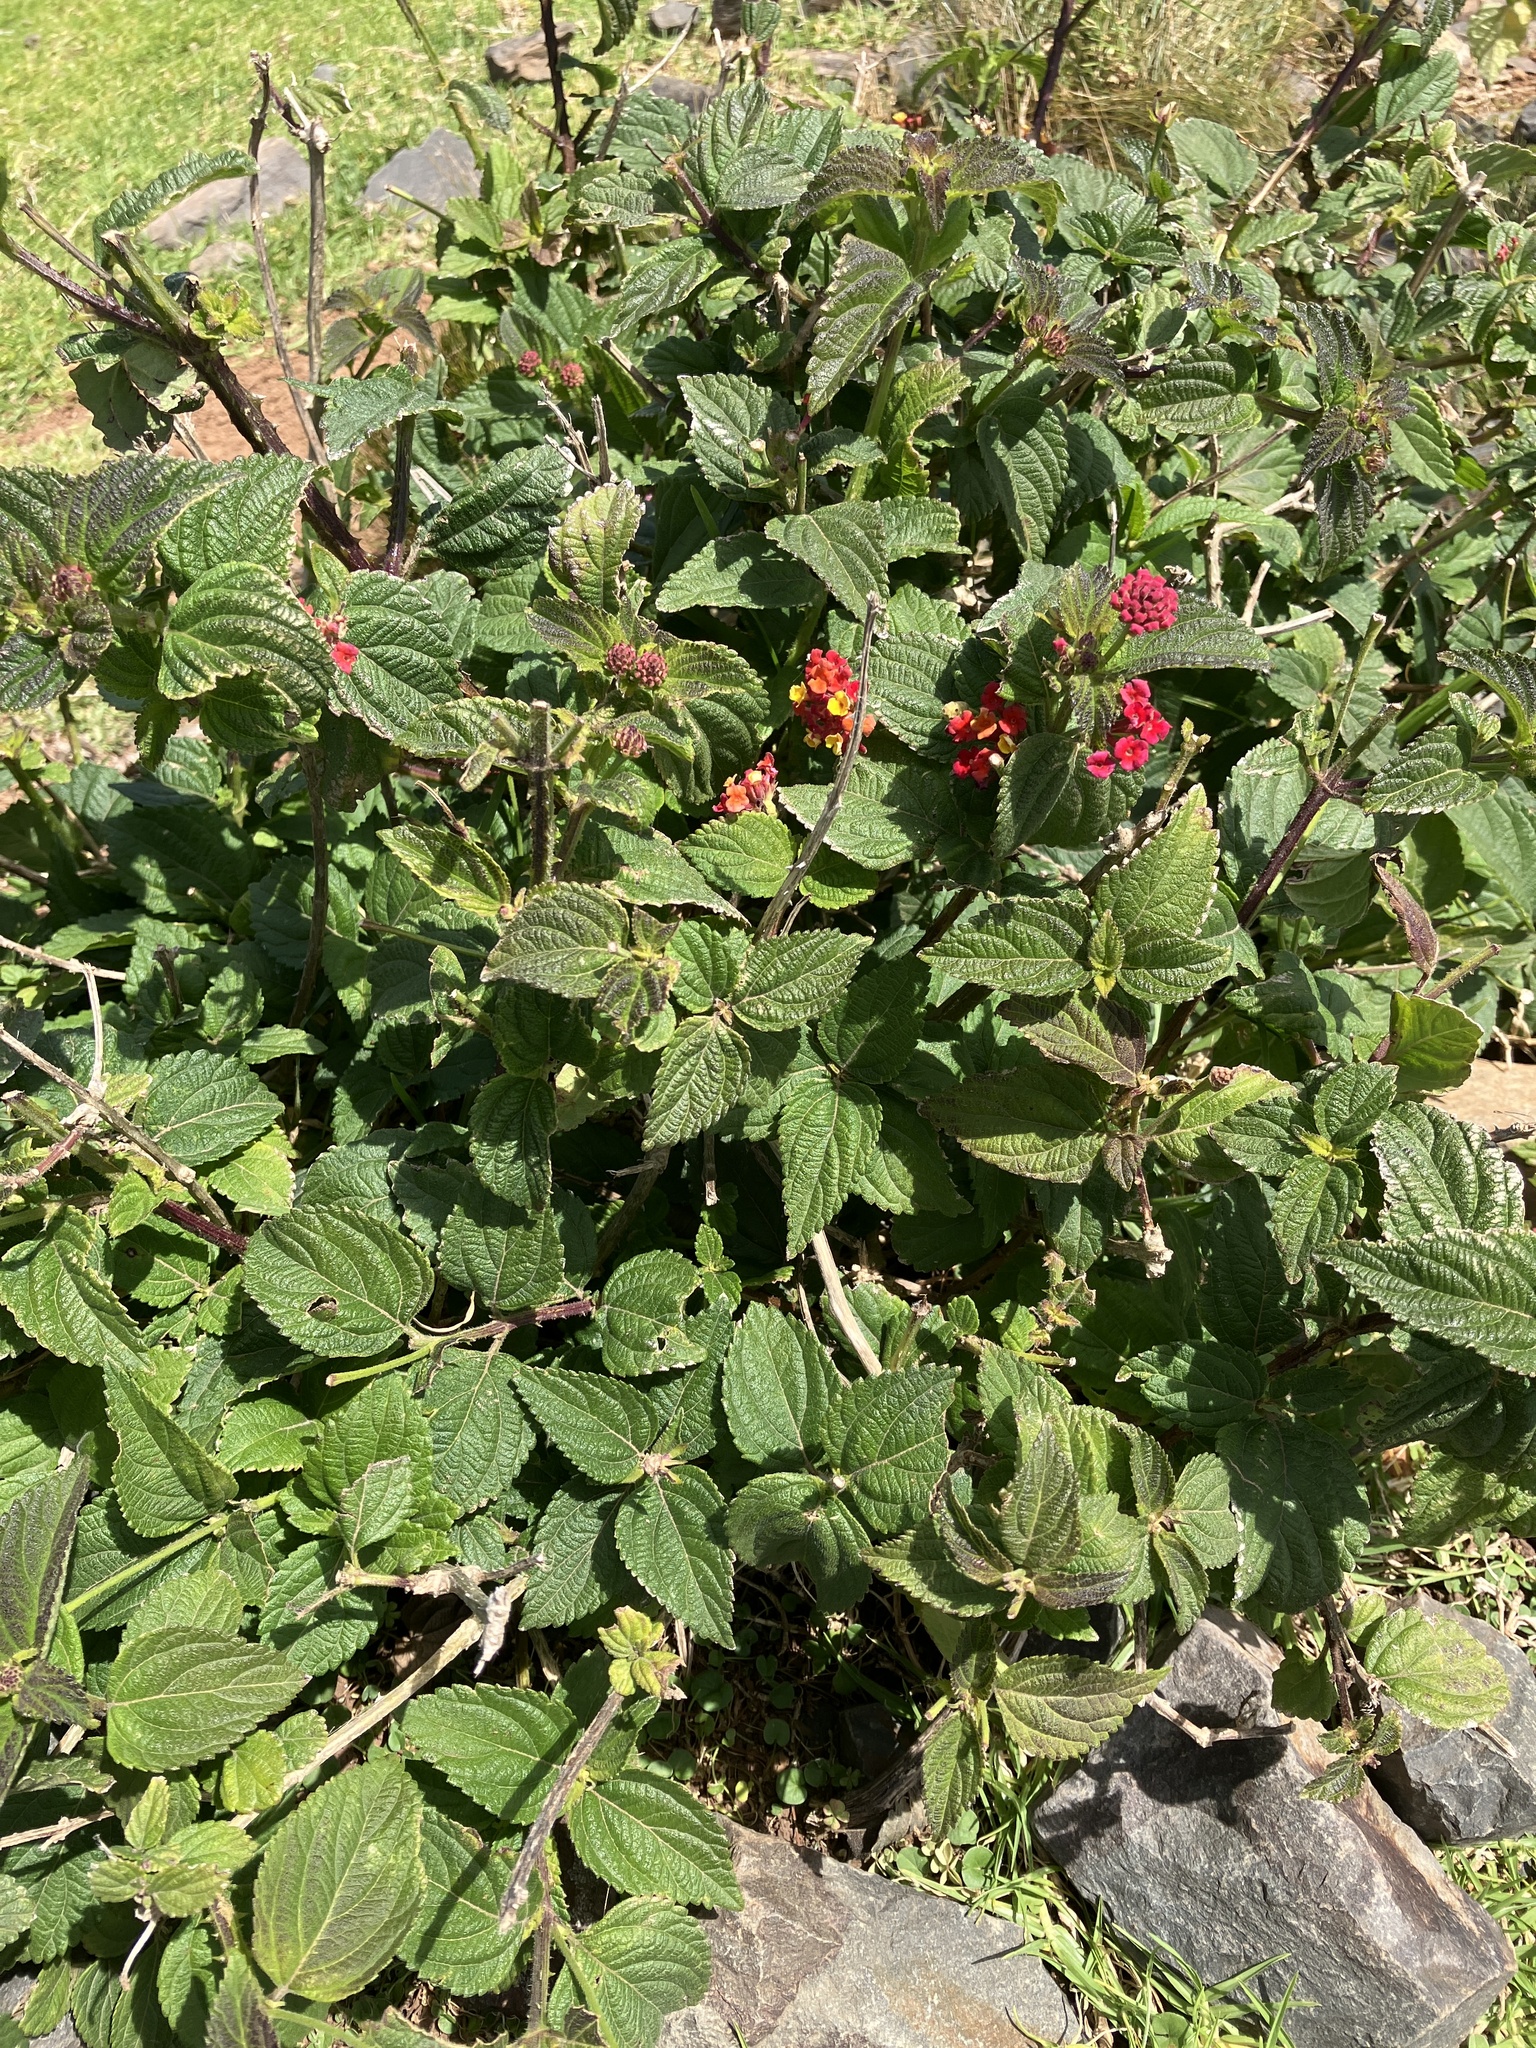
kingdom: Plantae
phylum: Tracheophyta
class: Magnoliopsida
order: Lamiales
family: Verbenaceae
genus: Lantana
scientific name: Lantana camara
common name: Lantana
